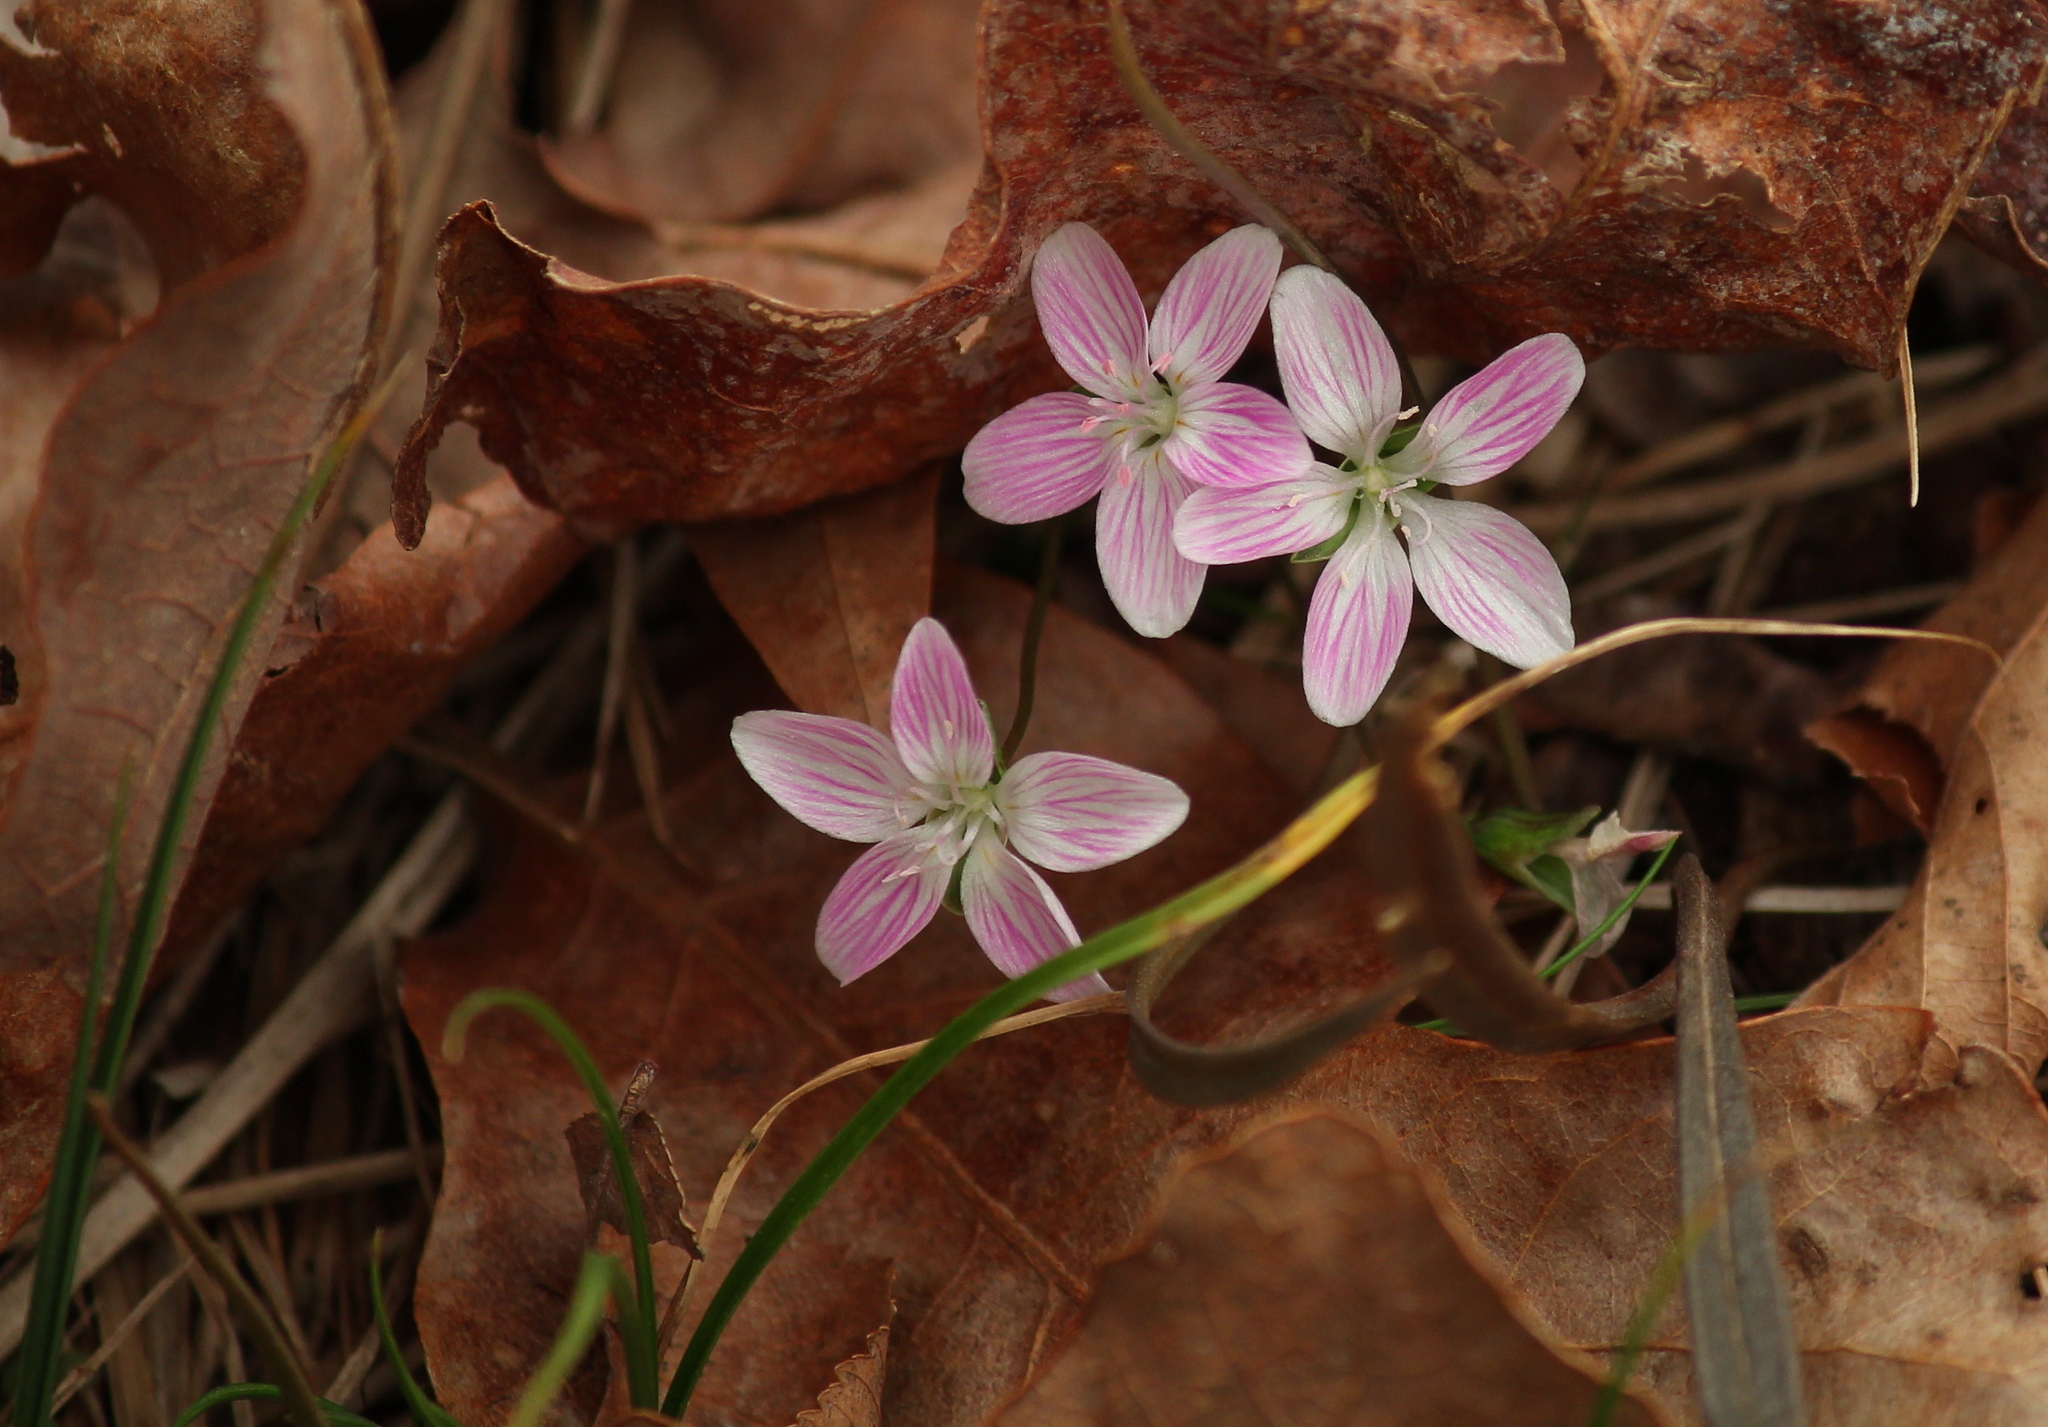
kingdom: Plantae
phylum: Tracheophyta
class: Magnoliopsida
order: Caryophyllales
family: Montiaceae
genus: Claytonia
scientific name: Claytonia virginica
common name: Virginia springbeauty
